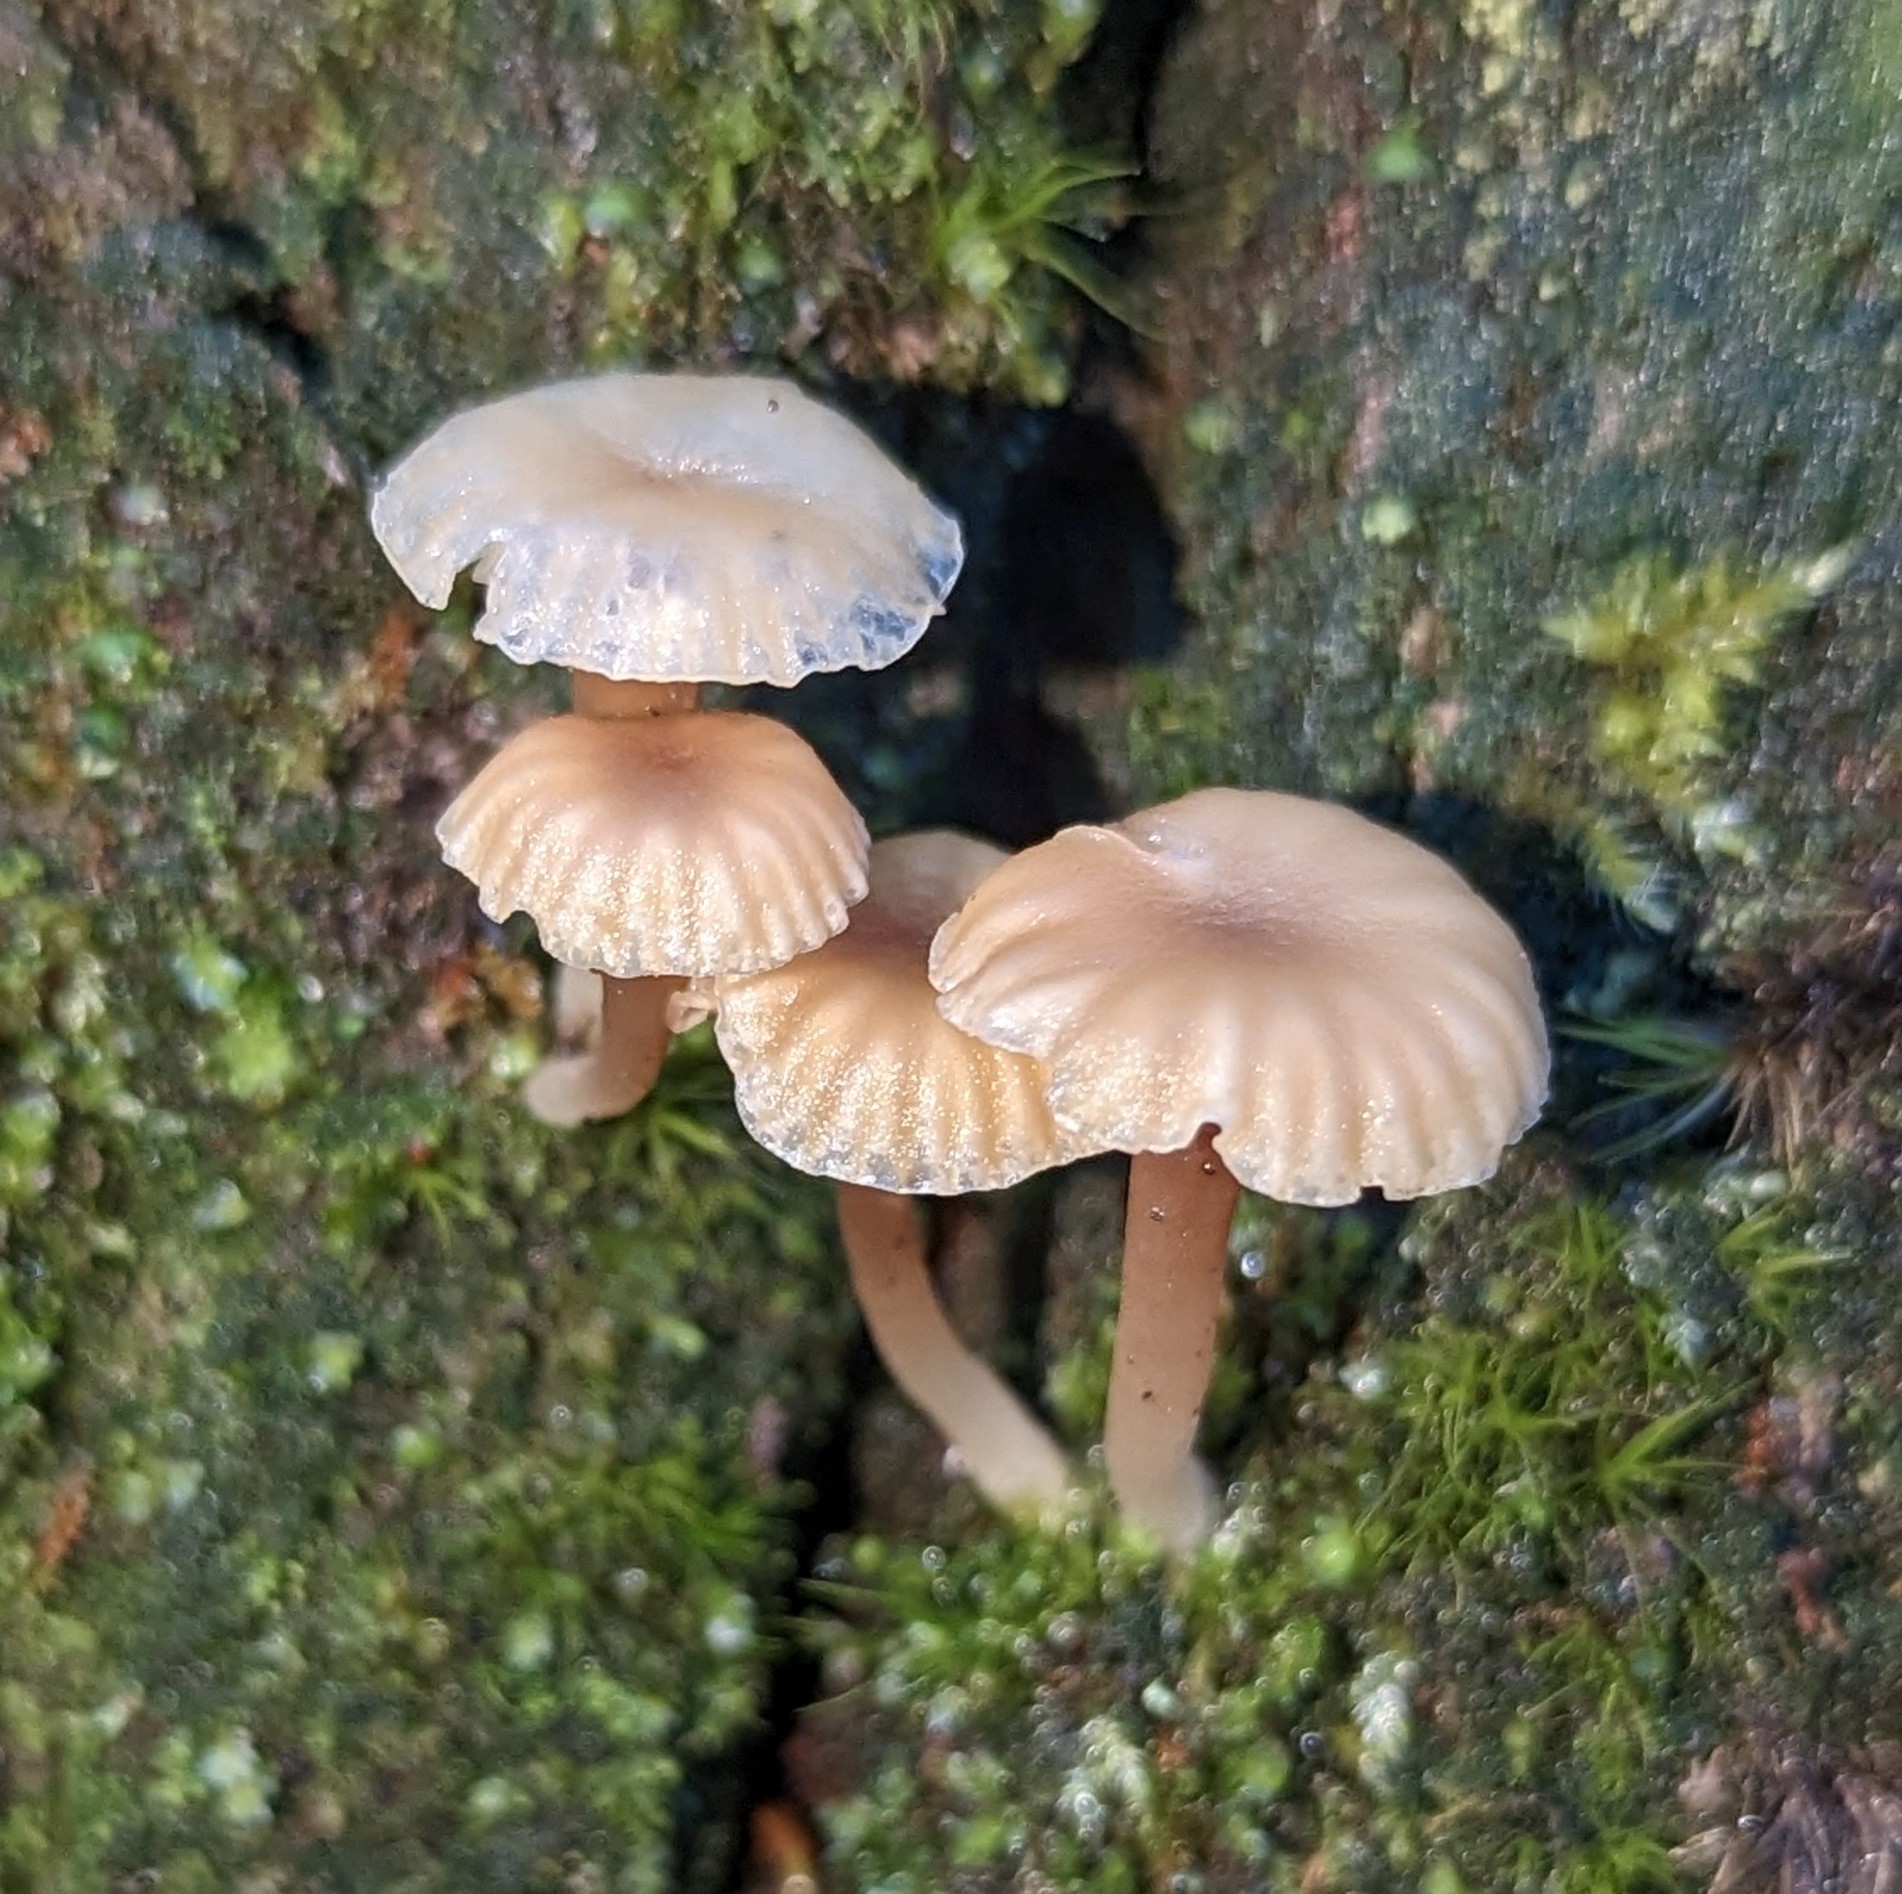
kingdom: Fungi
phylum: Basidiomycota
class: Agaricomycetes
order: Agaricales
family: Hygrophoraceae
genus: Lichenomphalia
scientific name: Lichenomphalia
